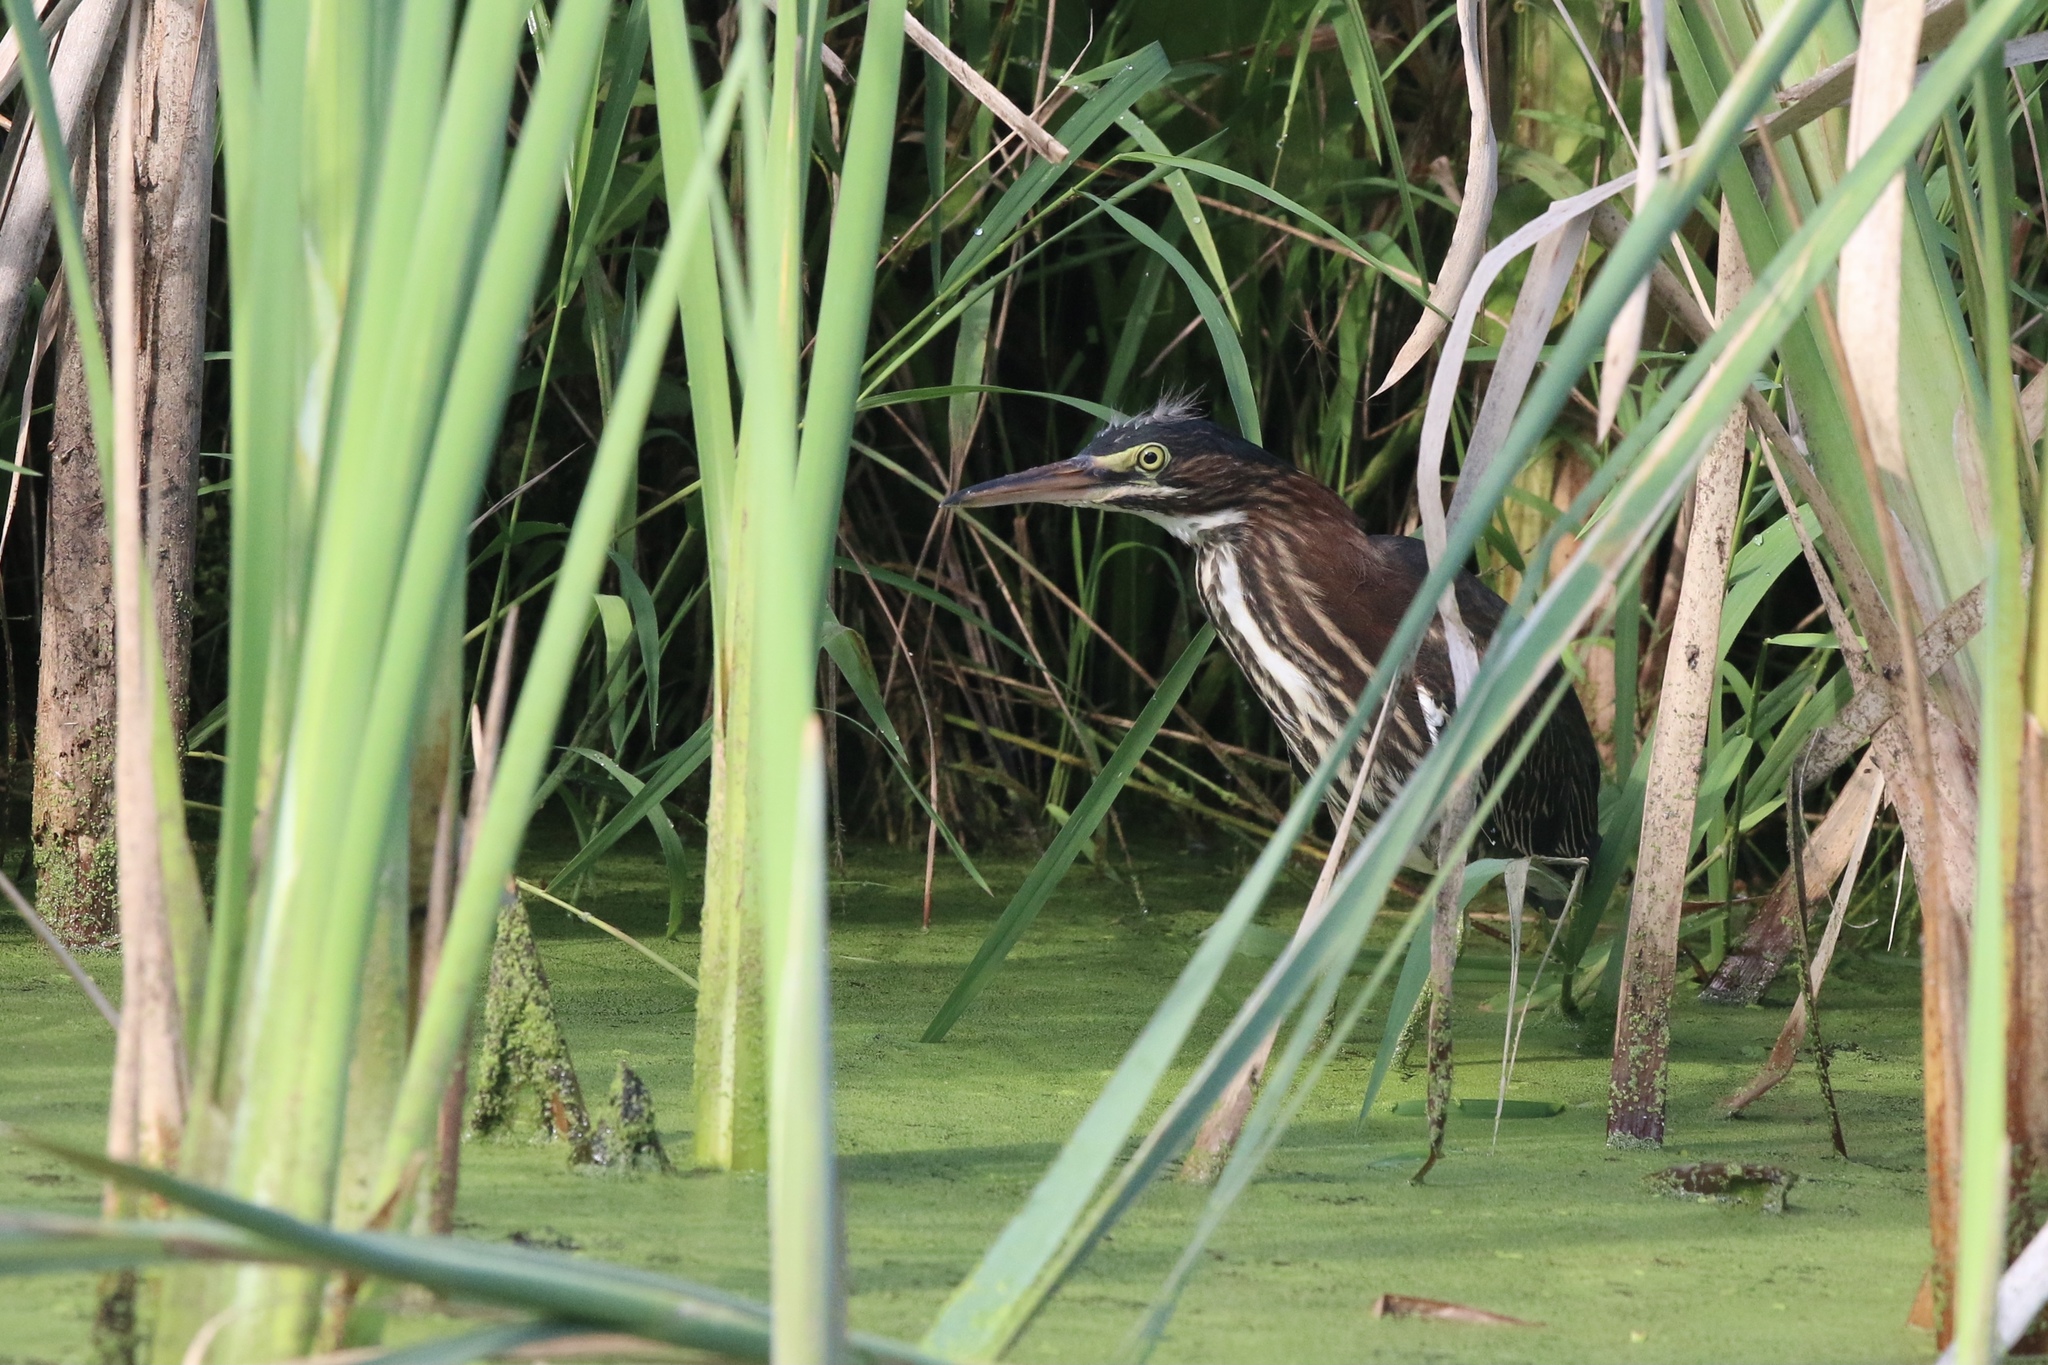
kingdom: Animalia
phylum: Chordata
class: Aves
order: Pelecaniformes
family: Ardeidae
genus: Butorides
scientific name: Butorides virescens
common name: Green heron
